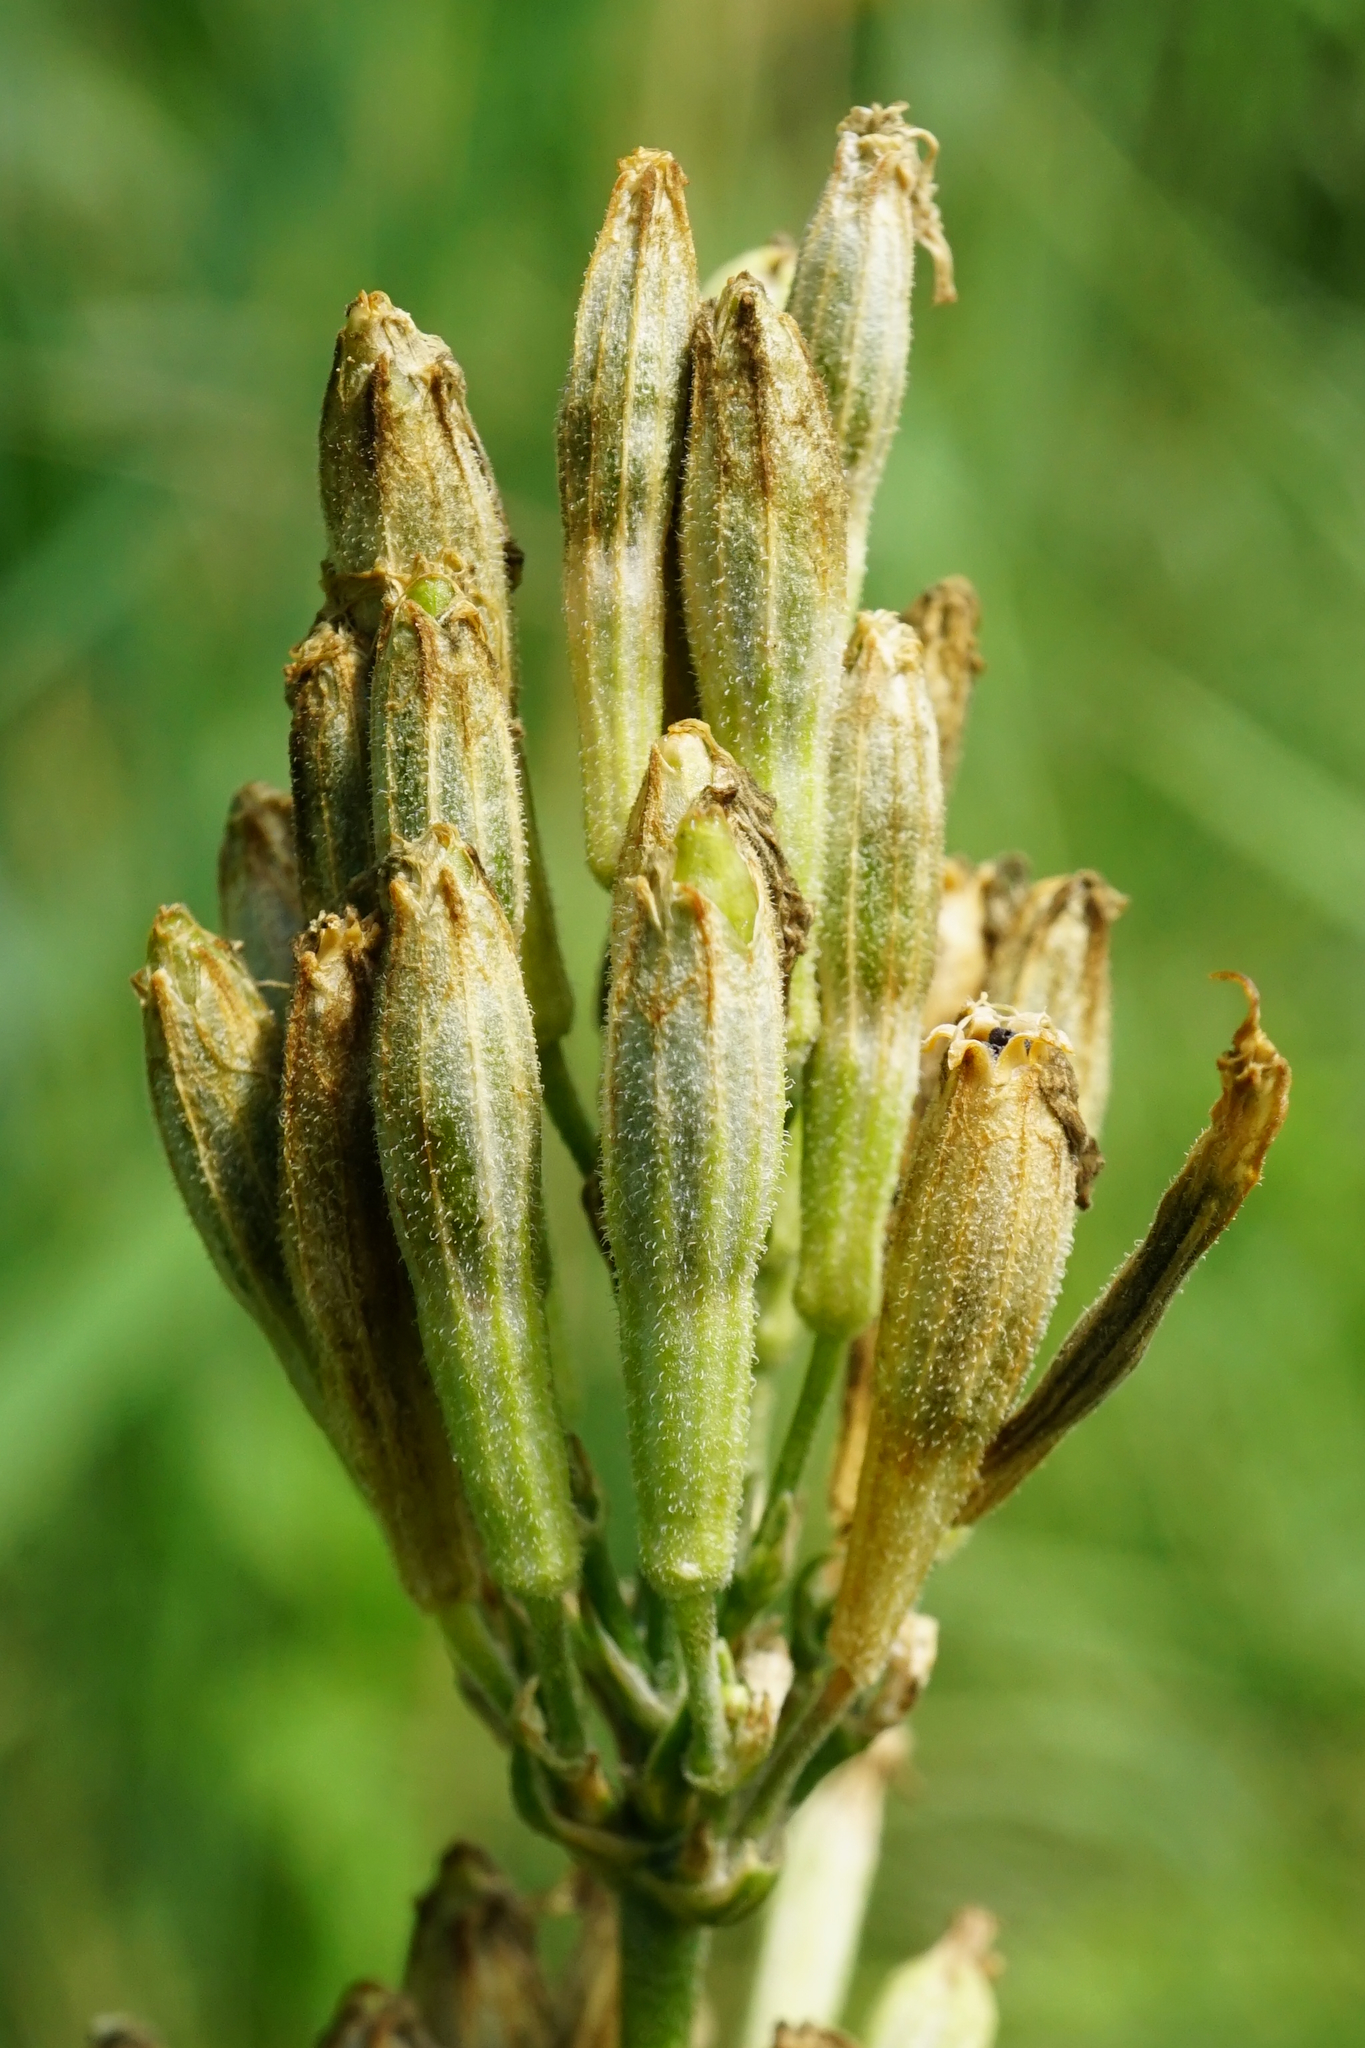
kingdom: Plantae
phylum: Tracheophyta
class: Magnoliopsida
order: Caryophyllales
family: Caryophyllaceae
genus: Silene
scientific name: Silene multiflora
